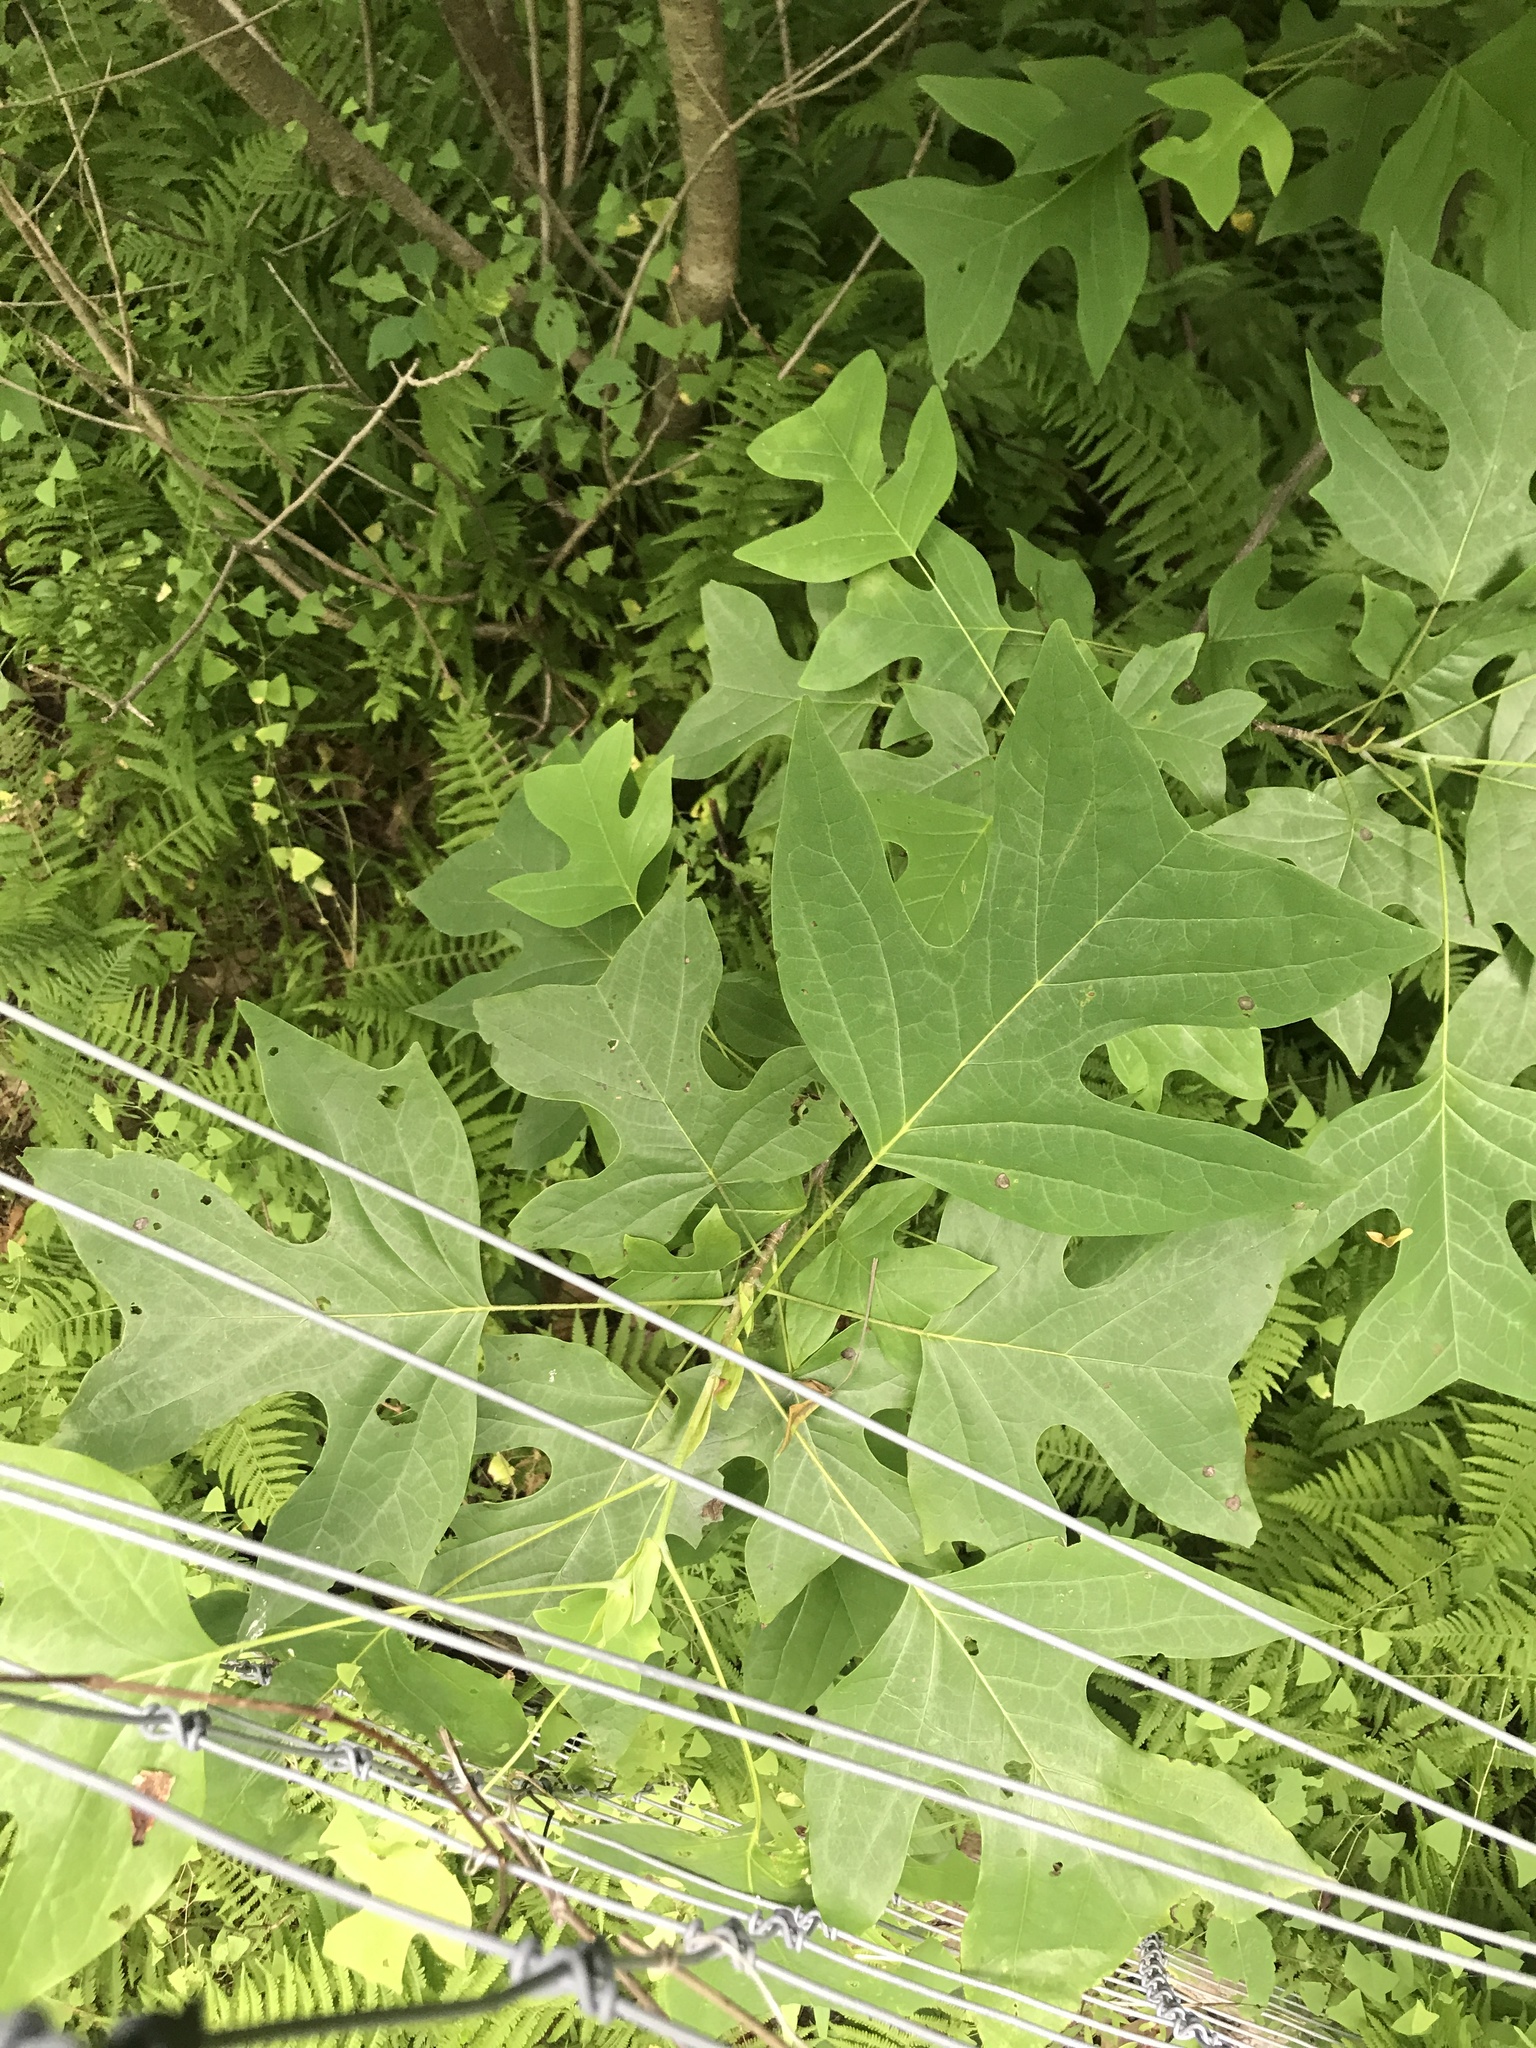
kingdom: Plantae
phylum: Tracheophyta
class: Magnoliopsida
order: Magnoliales
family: Magnoliaceae
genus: Liriodendron
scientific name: Liriodendron tulipifera
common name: Tulip tree
